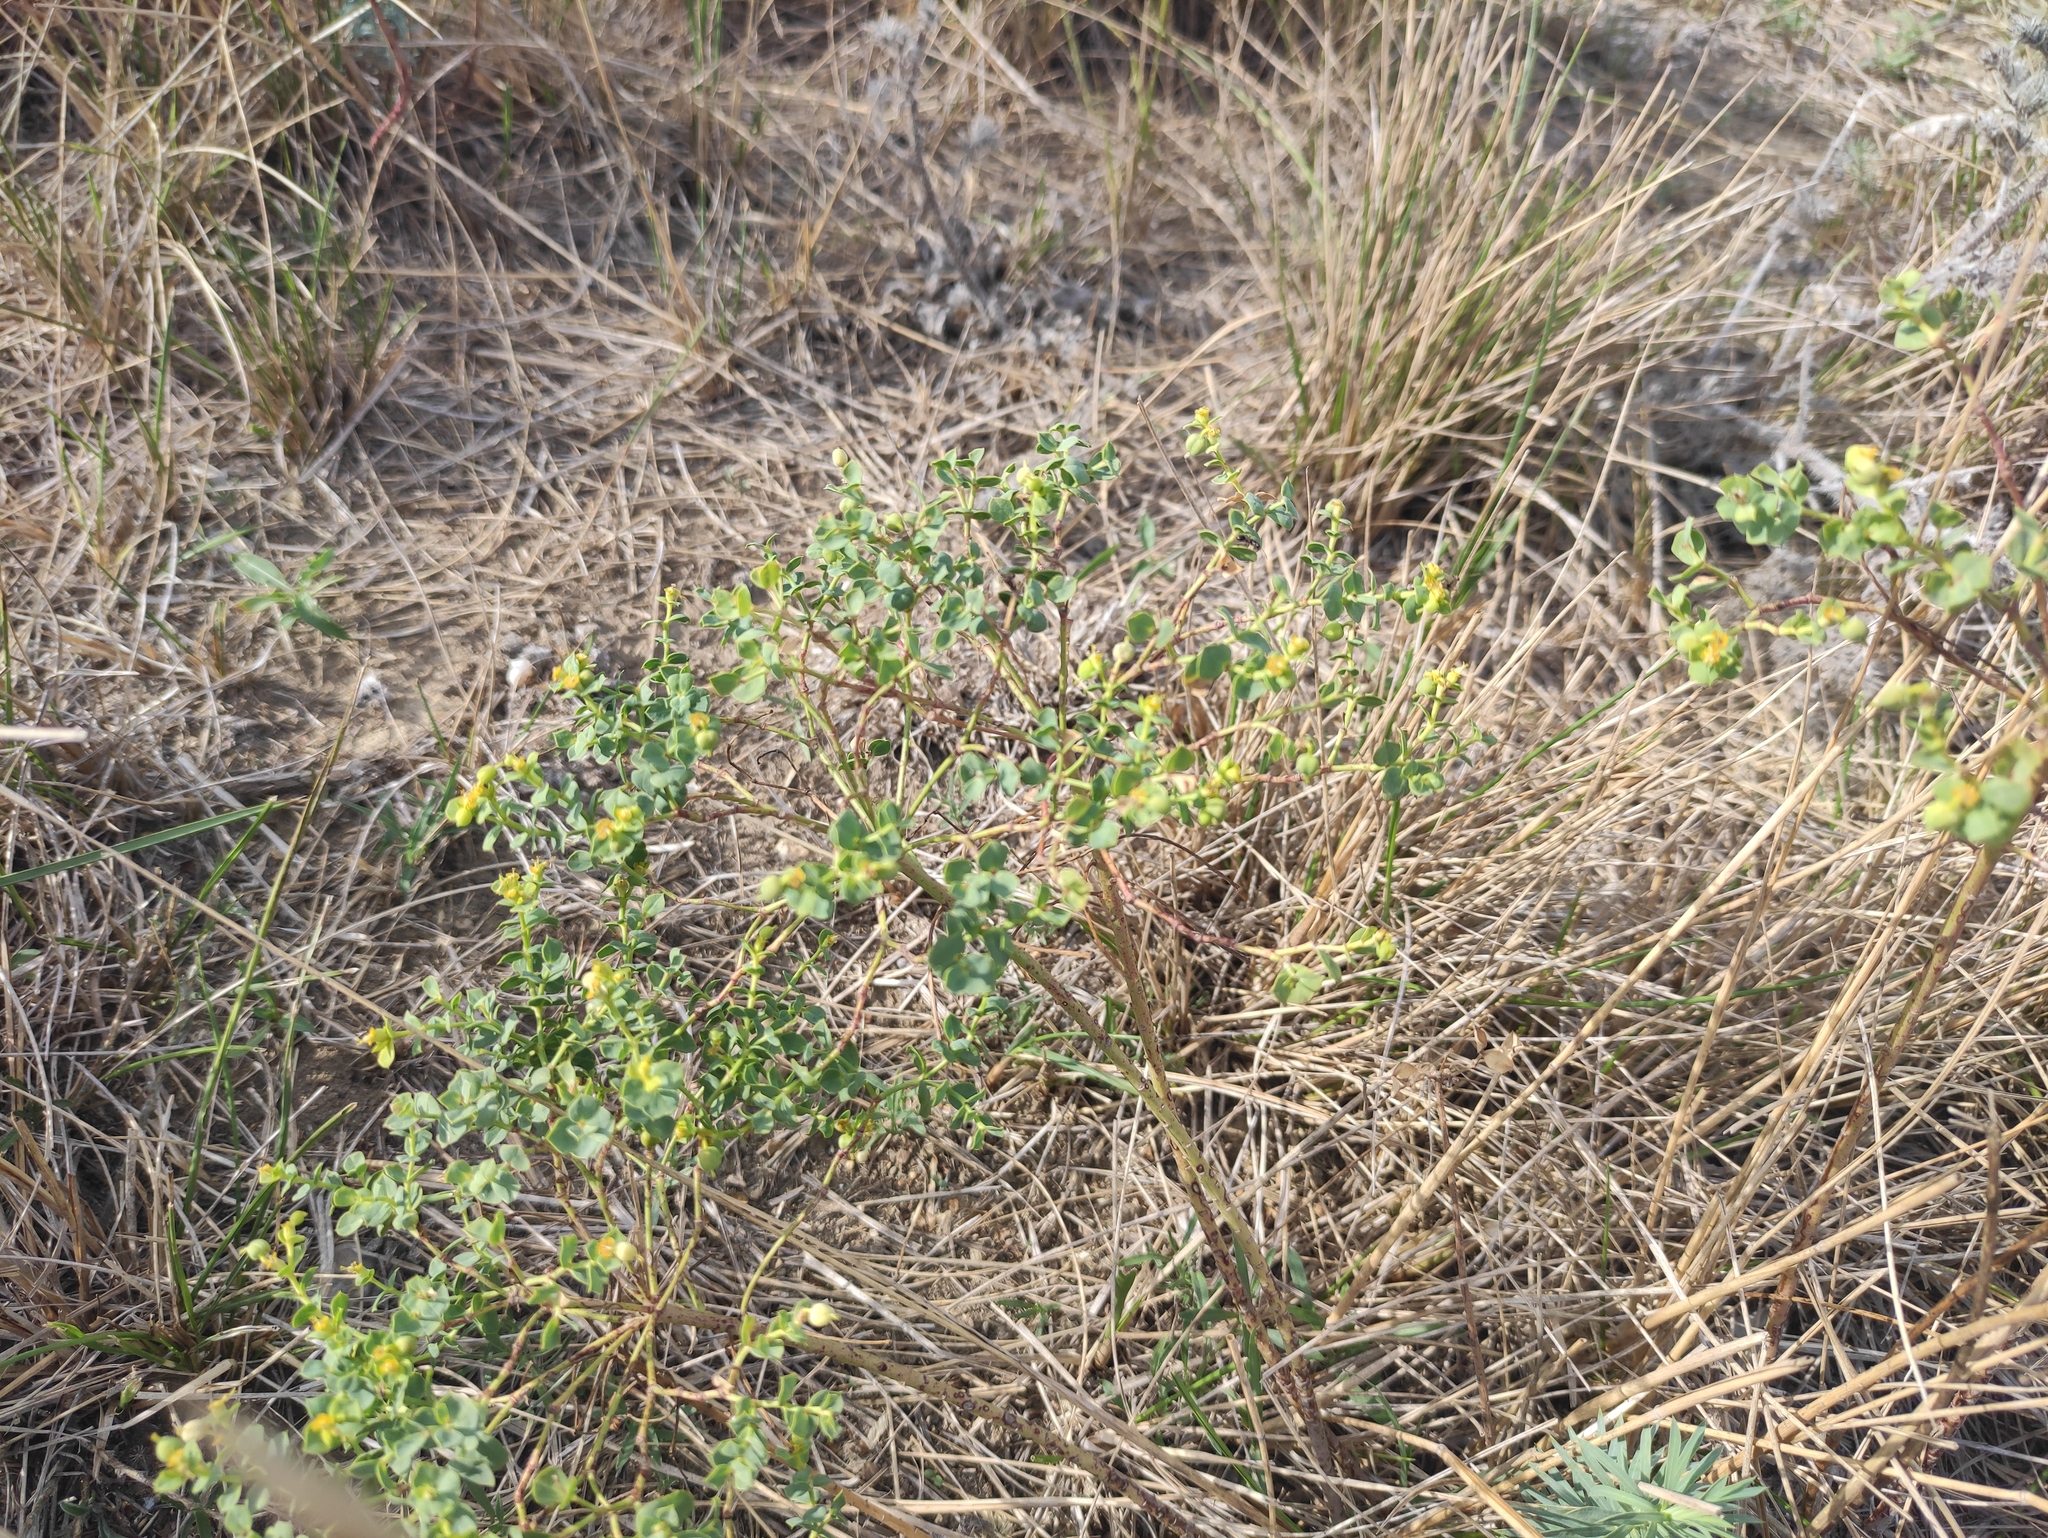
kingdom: Plantae
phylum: Tracheophyta
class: Magnoliopsida
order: Malpighiales
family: Euphorbiaceae
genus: Euphorbia
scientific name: Euphorbia seguieriana
